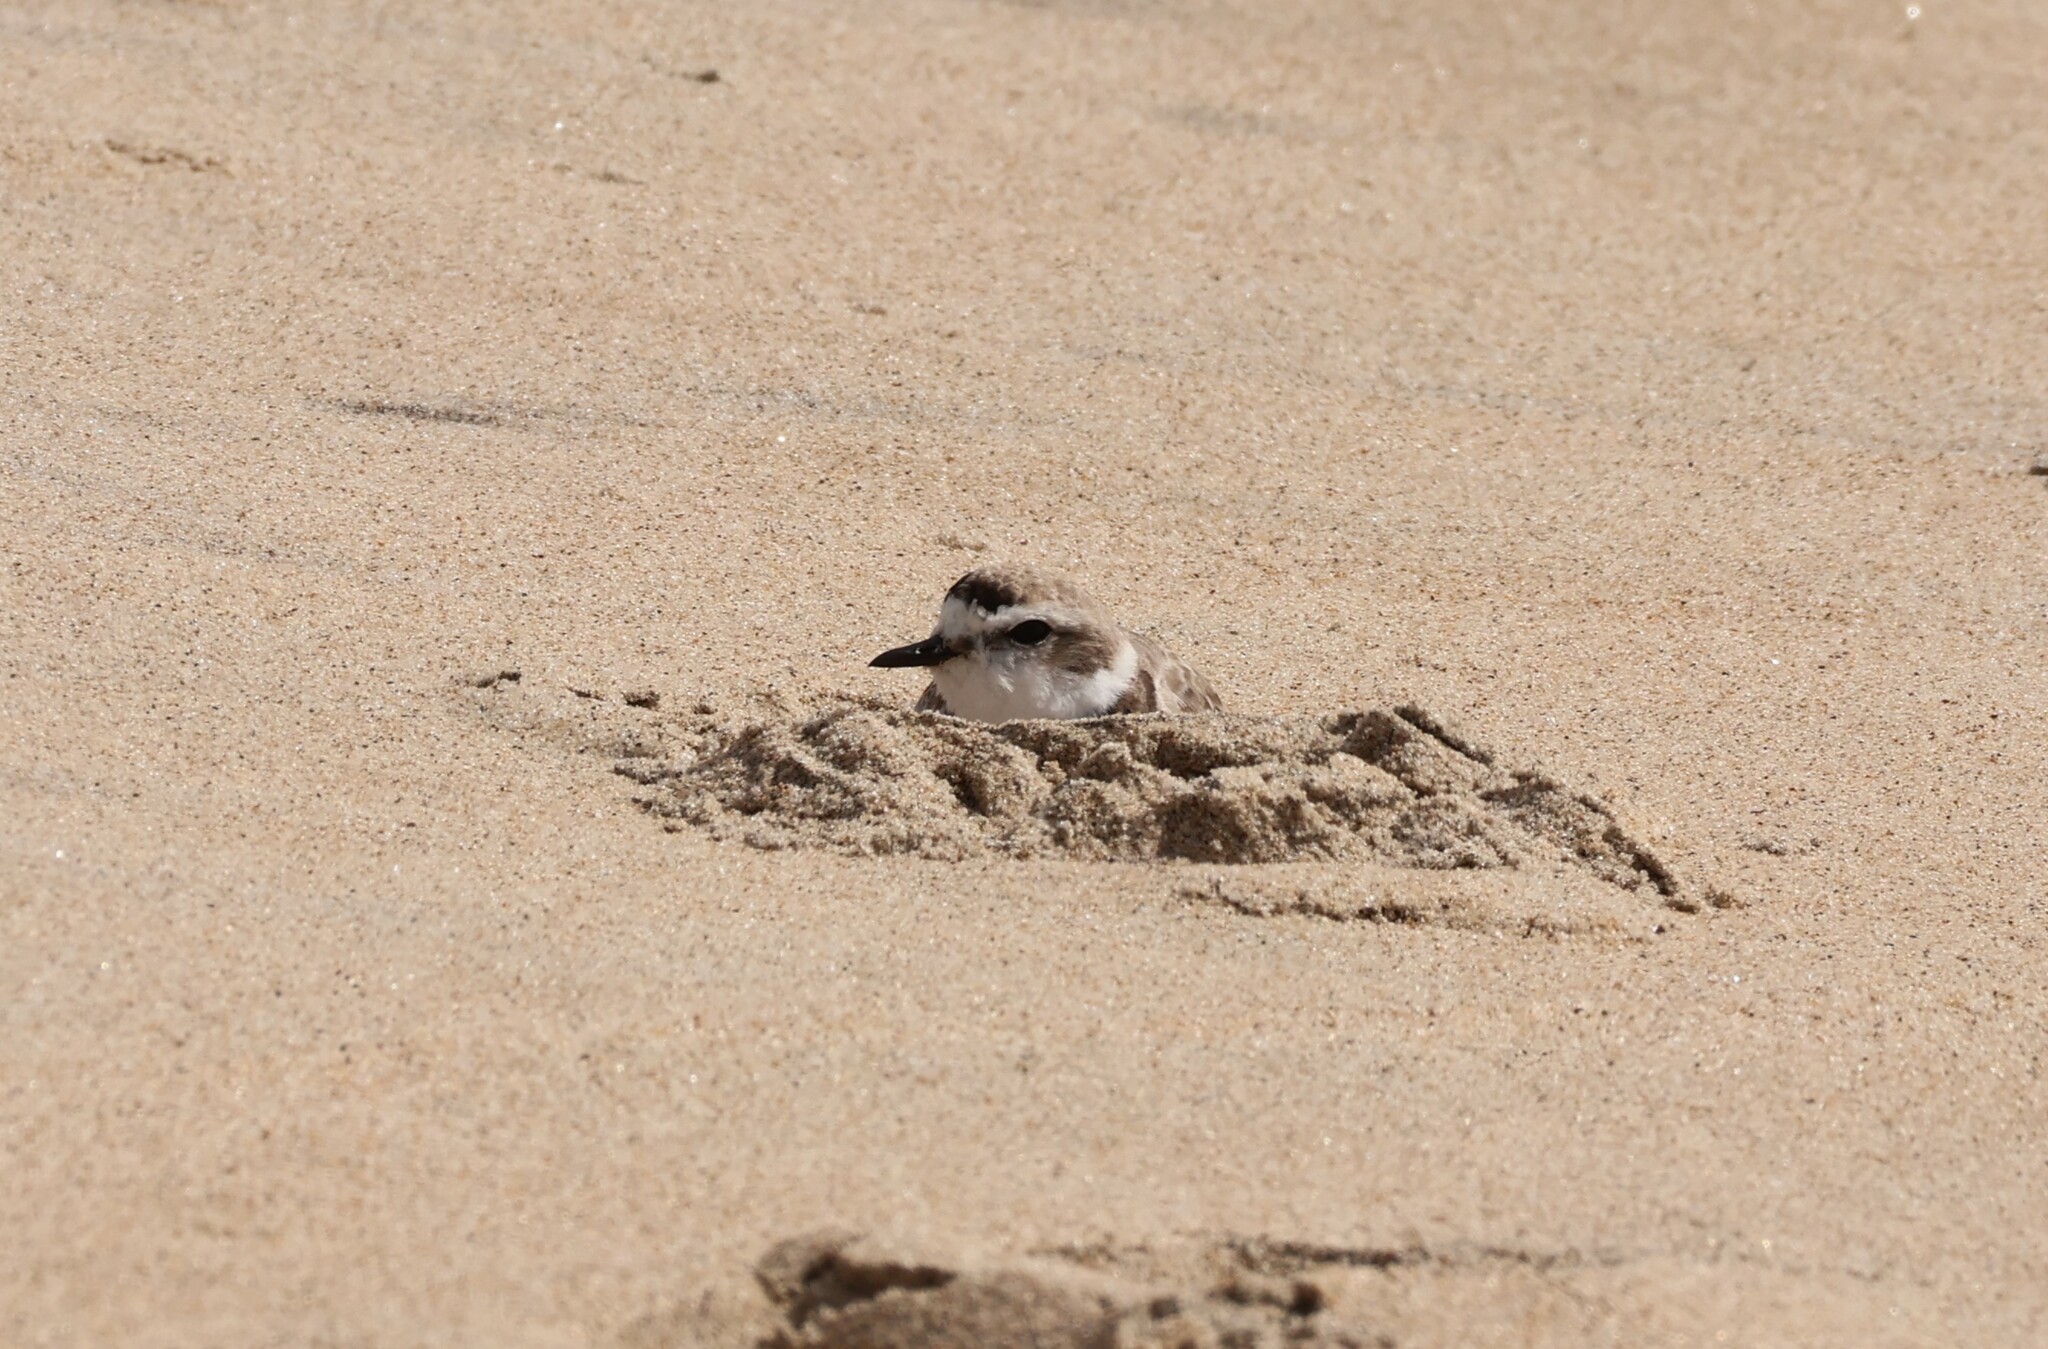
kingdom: Animalia
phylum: Chordata
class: Aves
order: Charadriiformes
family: Charadriidae
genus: Anarhynchus
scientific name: Anarhynchus
